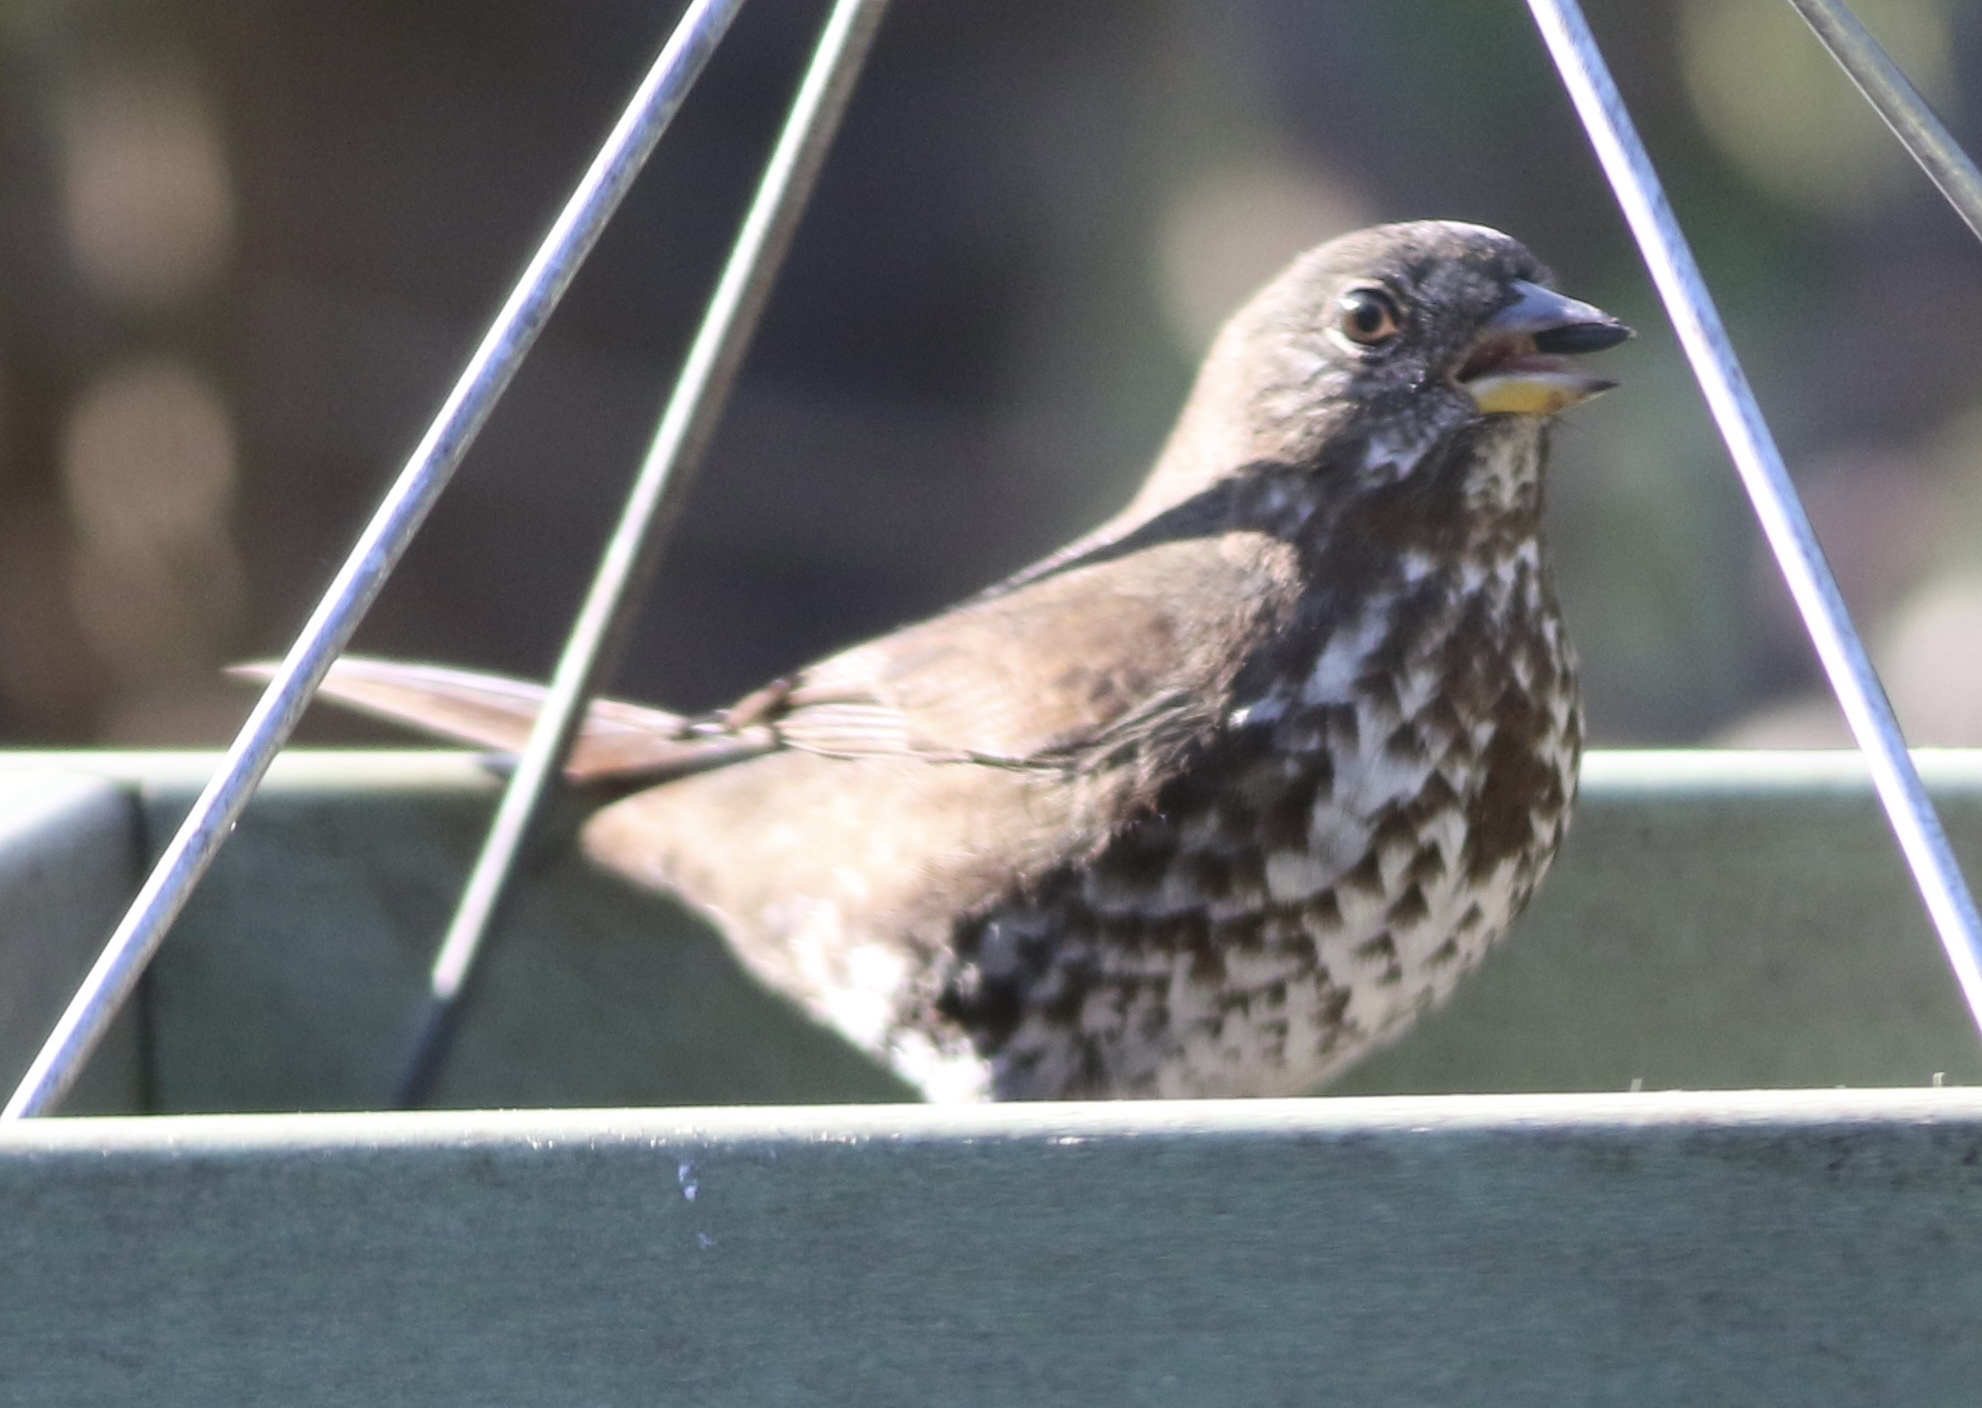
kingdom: Animalia
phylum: Chordata
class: Aves
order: Passeriformes
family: Passerellidae
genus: Passerella
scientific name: Passerella iliaca
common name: Fox sparrow
